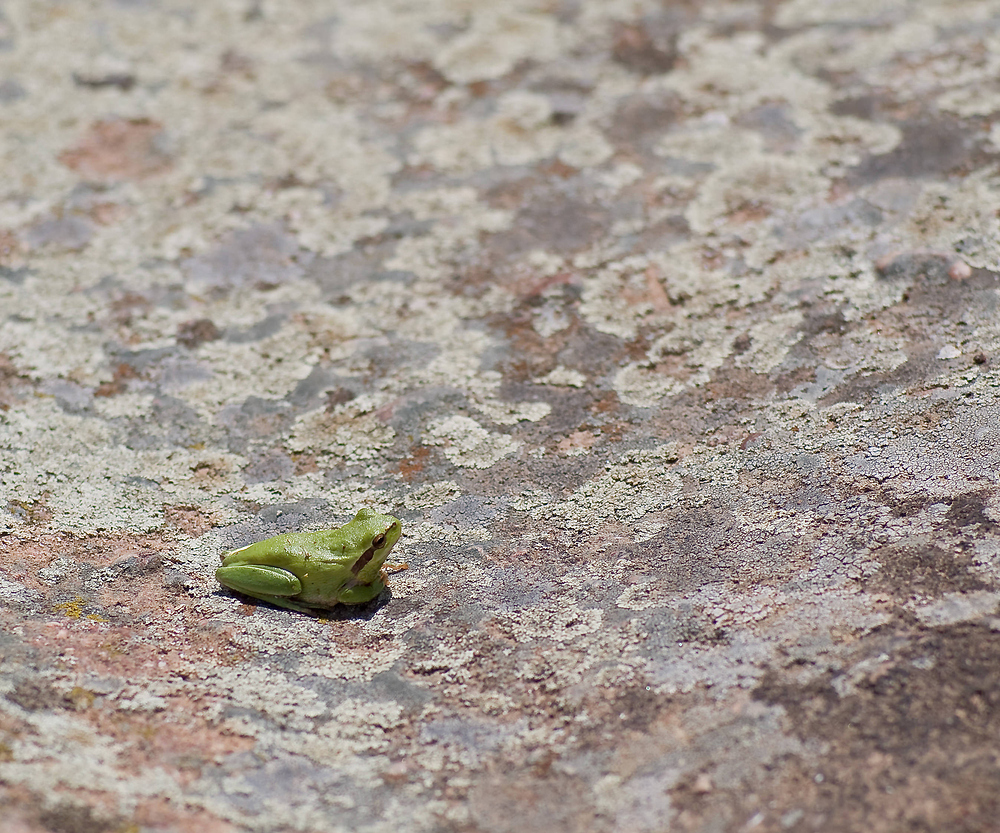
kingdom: Animalia
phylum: Chordata
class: Amphibia
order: Anura
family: Hylidae
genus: Hyla
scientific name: Hyla meridionalis
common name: Stripeless tree frog
